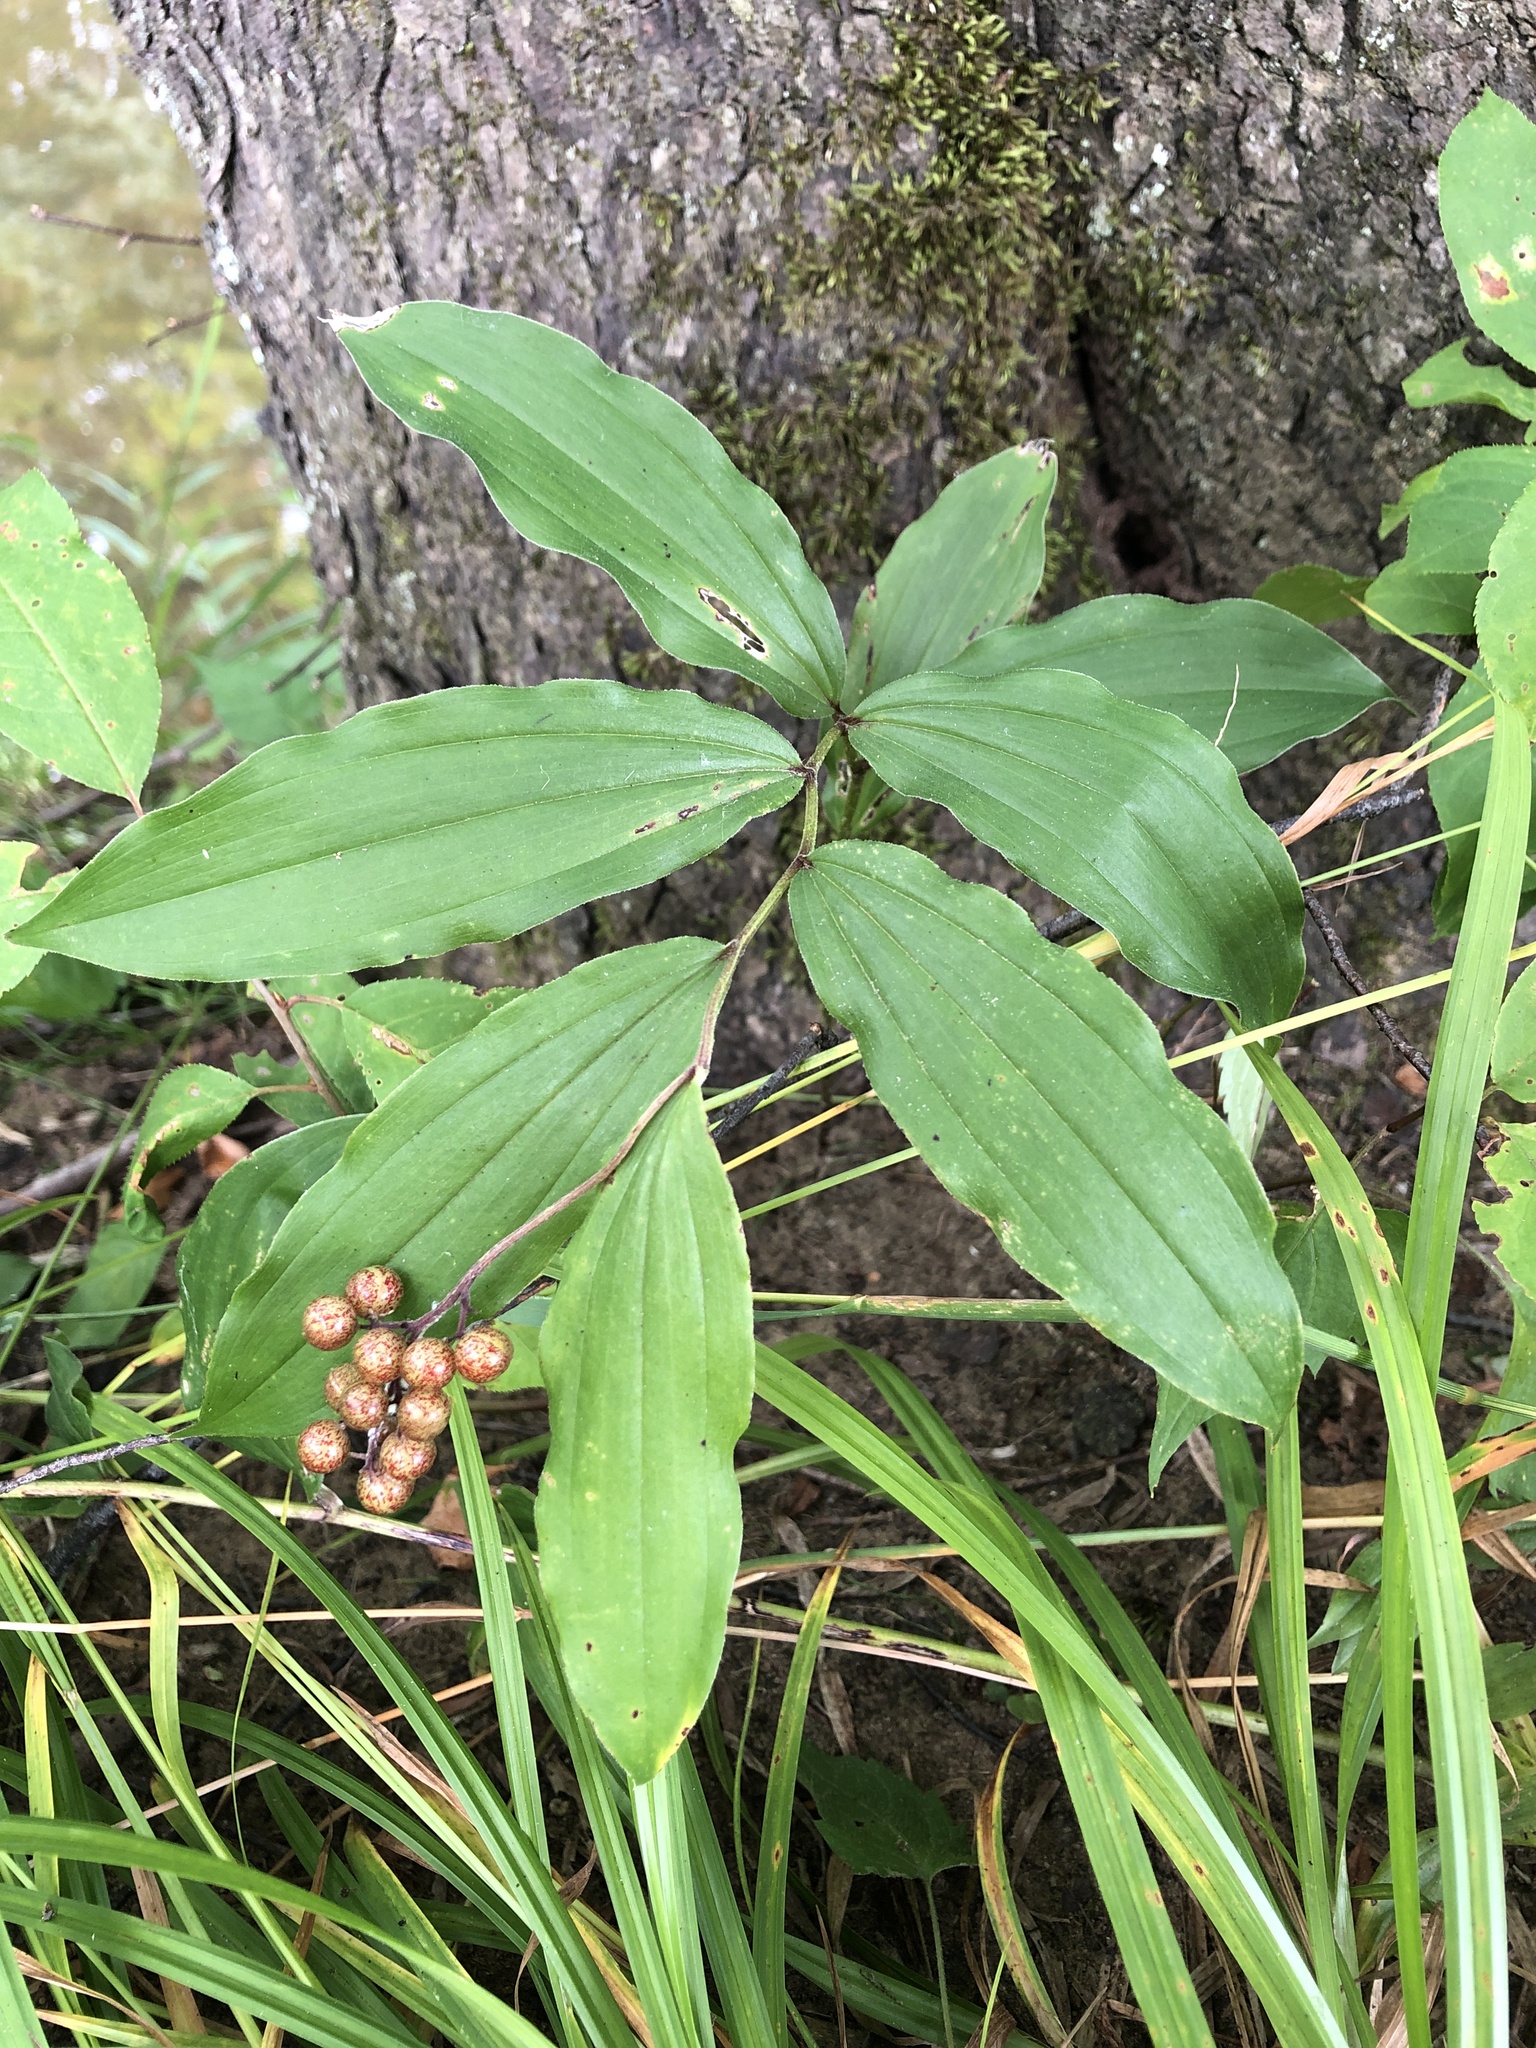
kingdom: Plantae
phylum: Tracheophyta
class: Liliopsida
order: Asparagales
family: Asparagaceae
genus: Maianthemum
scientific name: Maianthemum racemosum
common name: False spikenard
